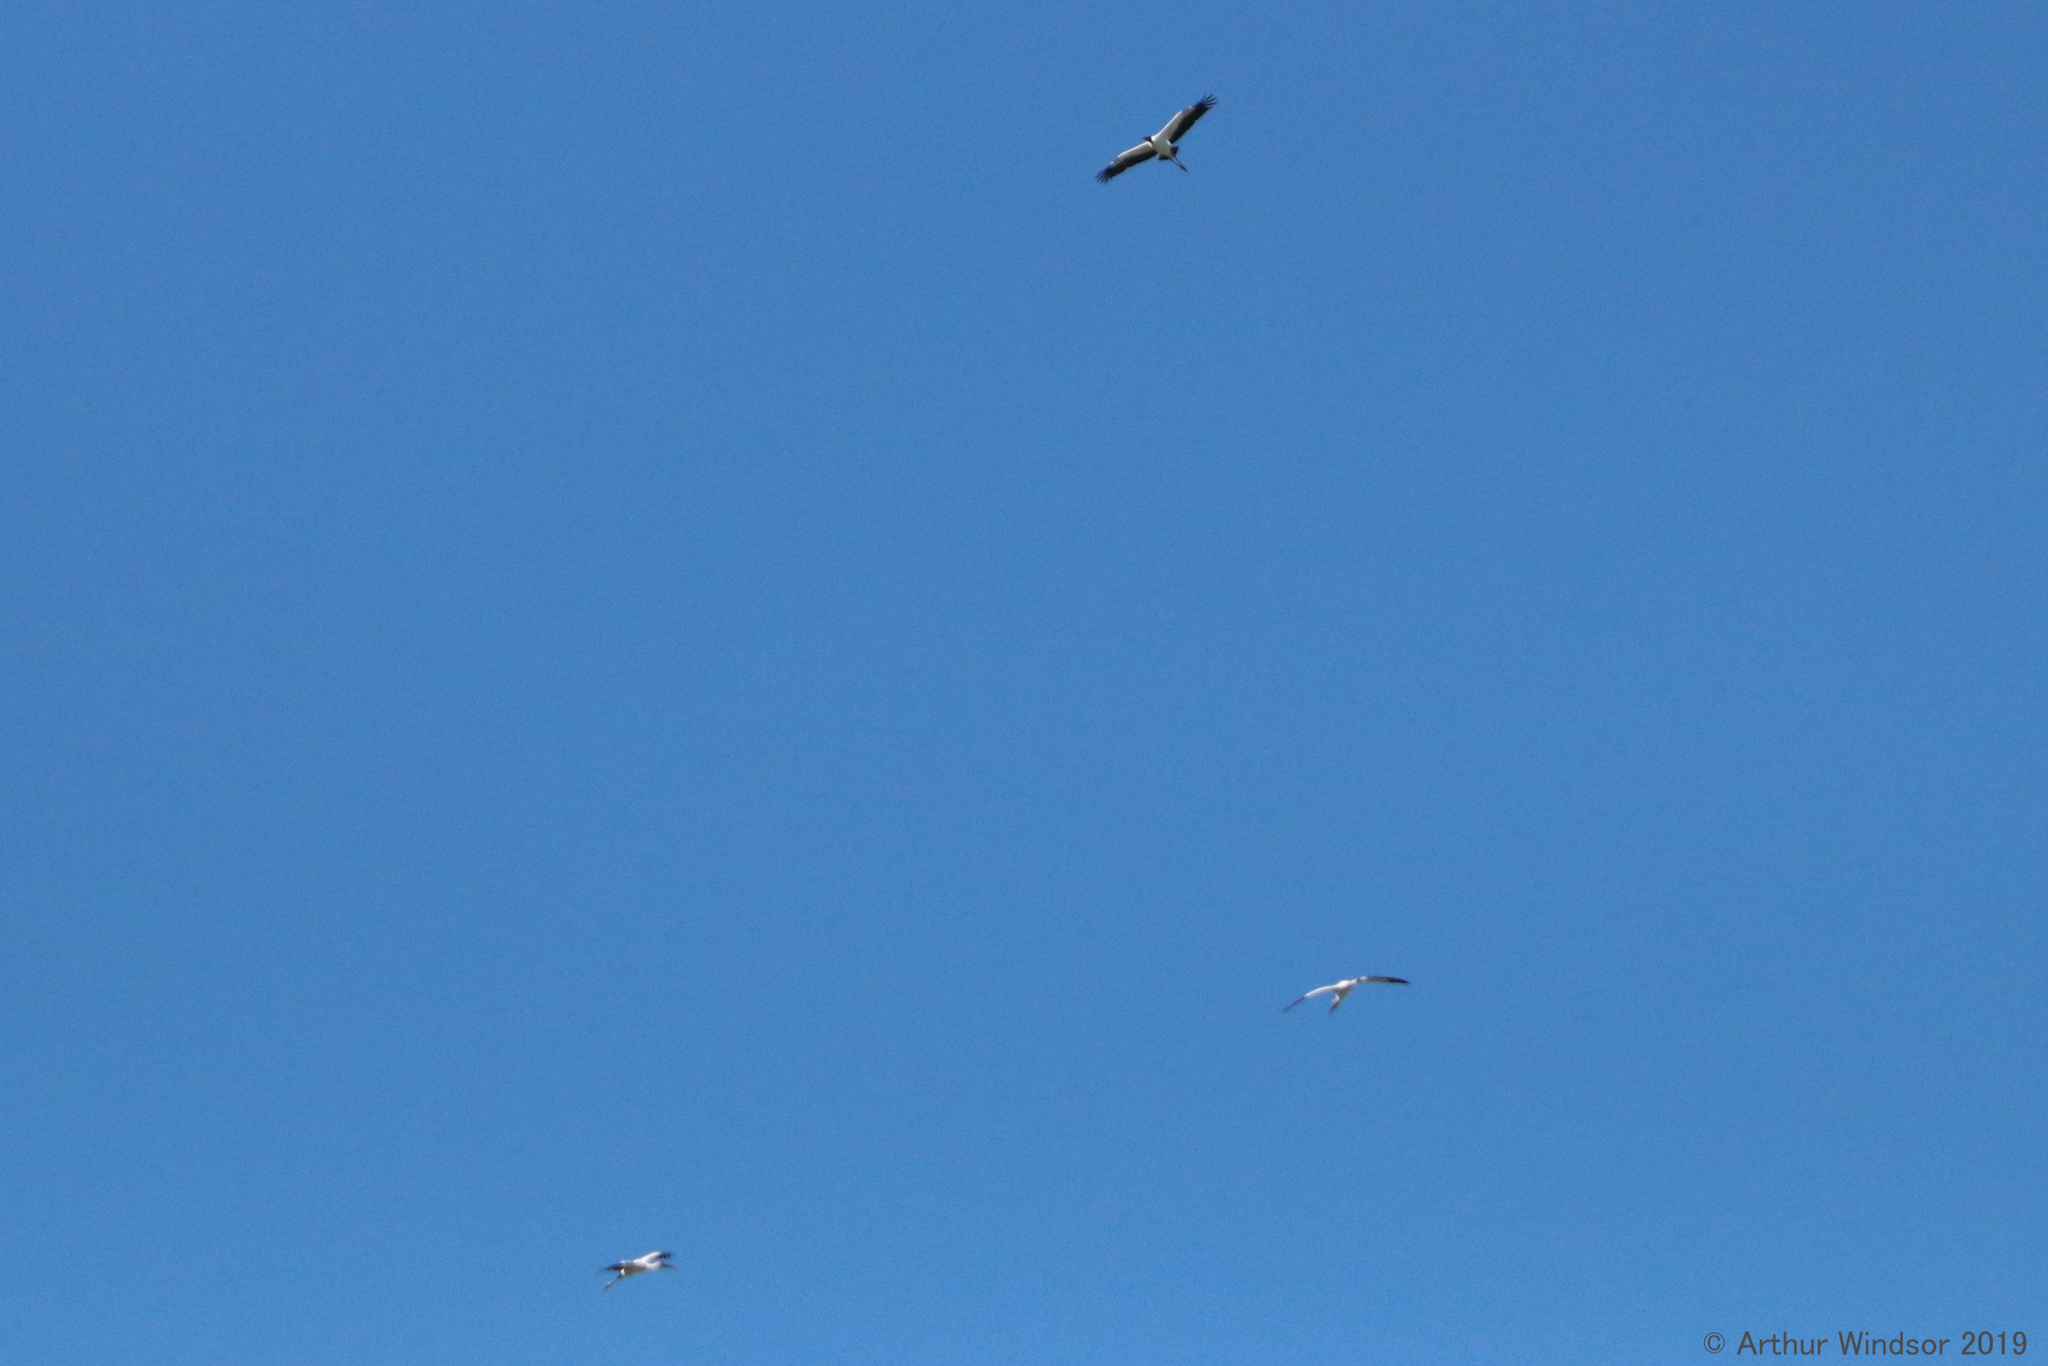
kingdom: Animalia
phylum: Chordata
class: Aves
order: Ciconiiformes
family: Ciconiidae
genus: Mycteria
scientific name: Mycteria americana
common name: Wood stork
